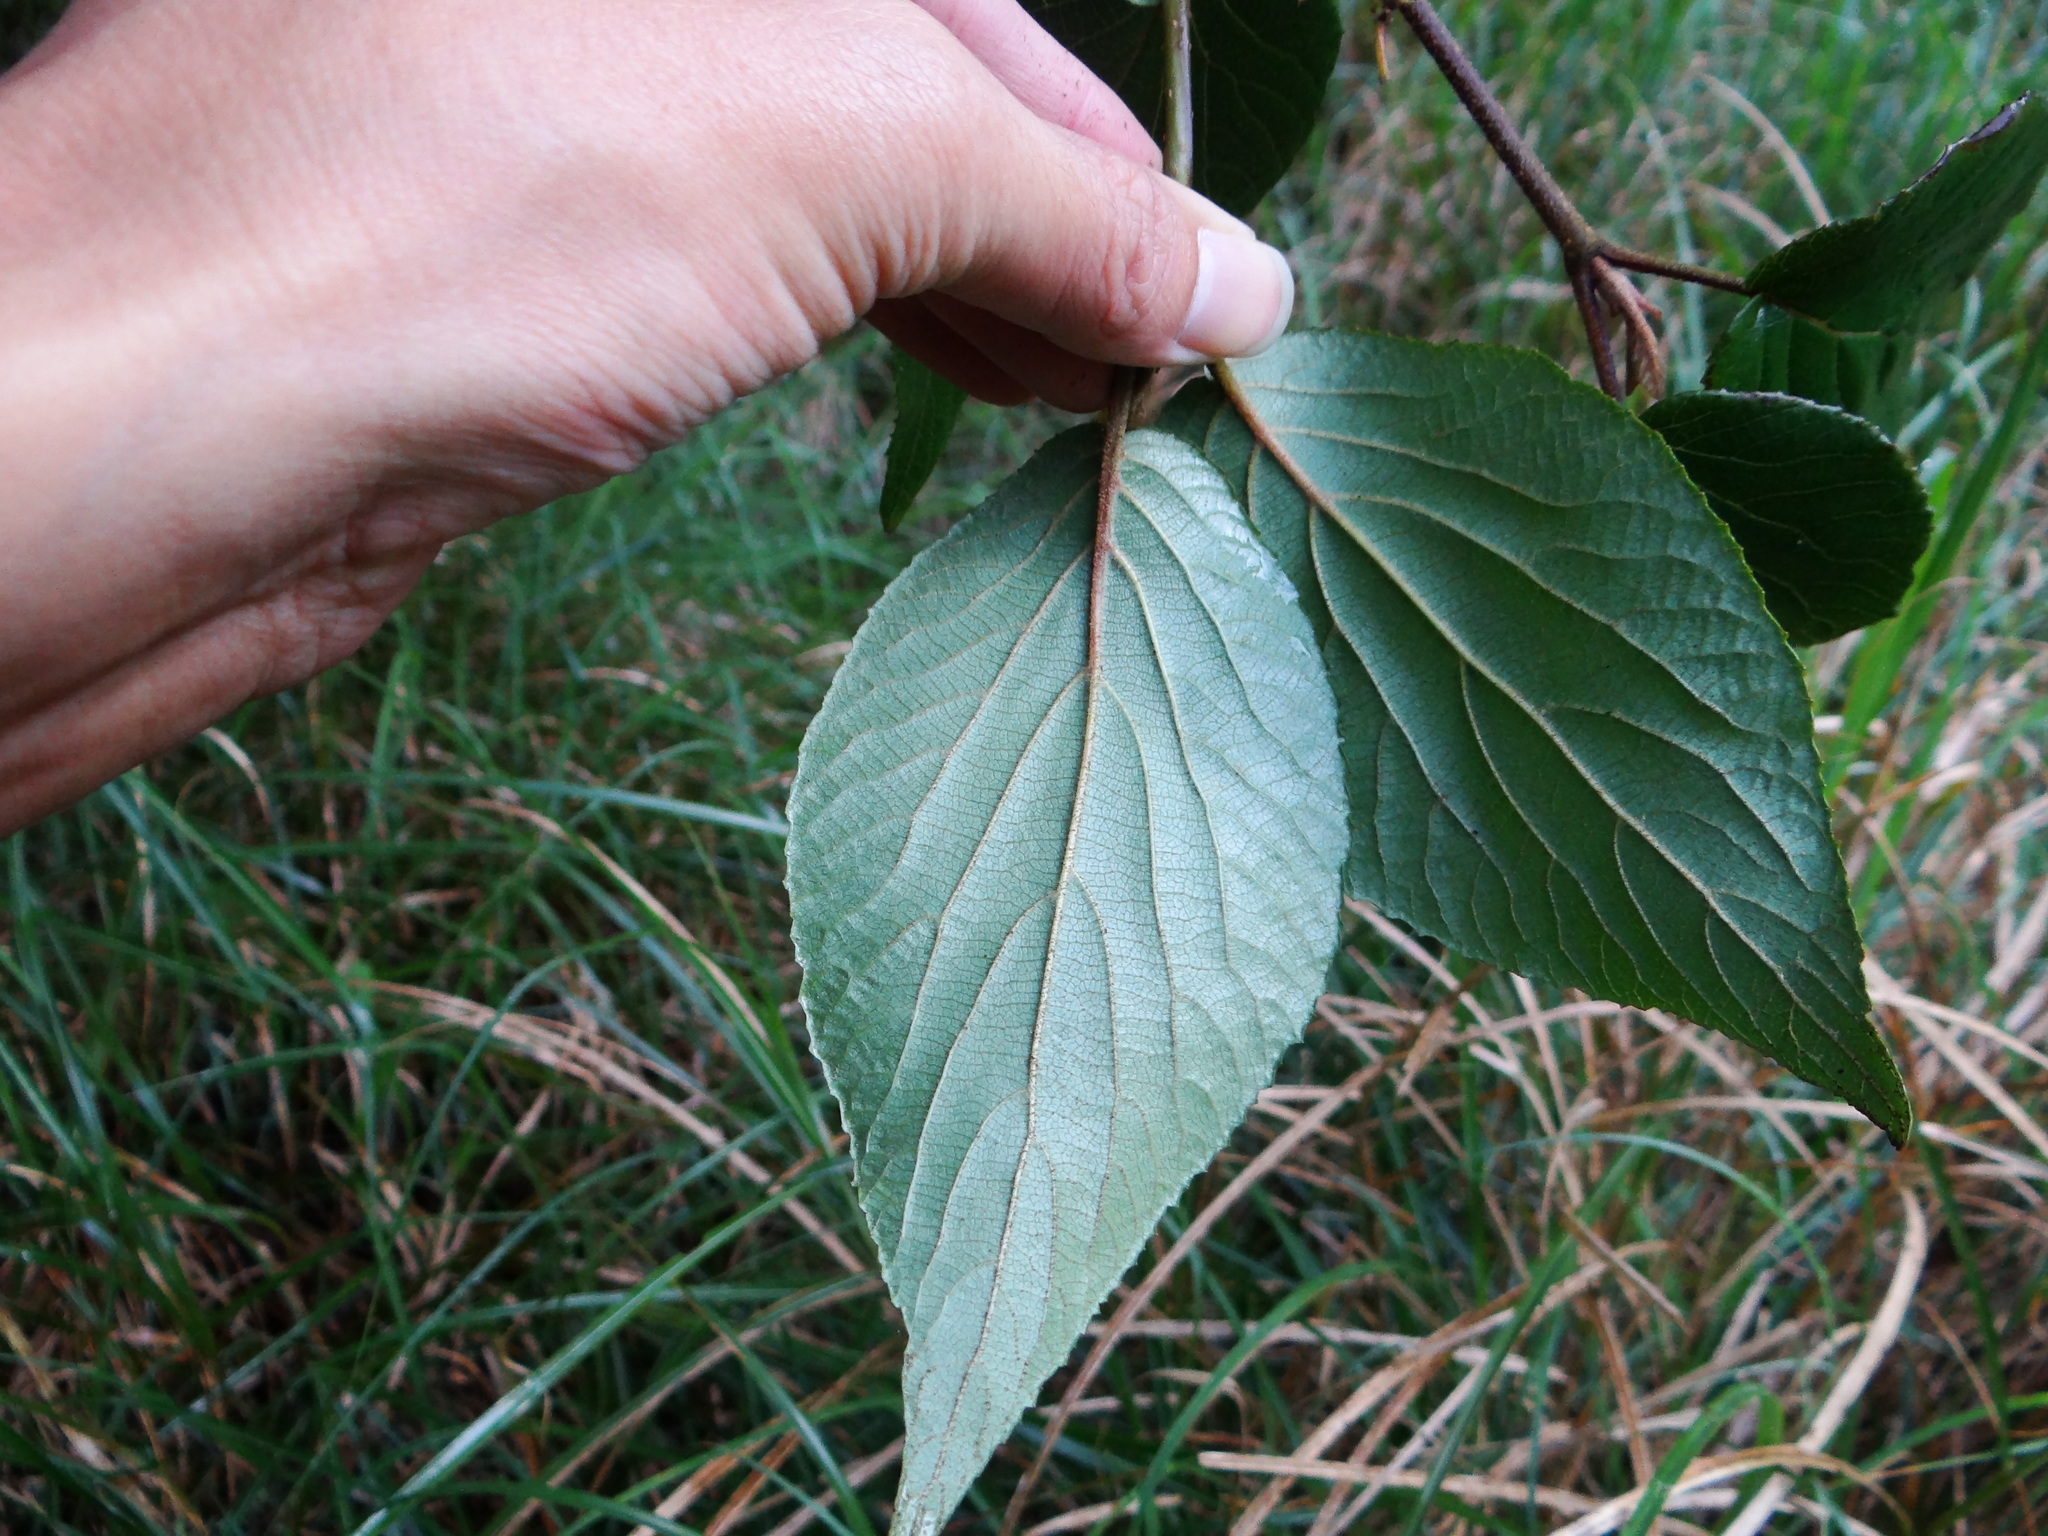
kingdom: Plantae
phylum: Tracheophyta
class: Magnoliopsida
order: Dipsacales
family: Viburnaceae
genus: Viburnum
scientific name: Viburnum furcatum
